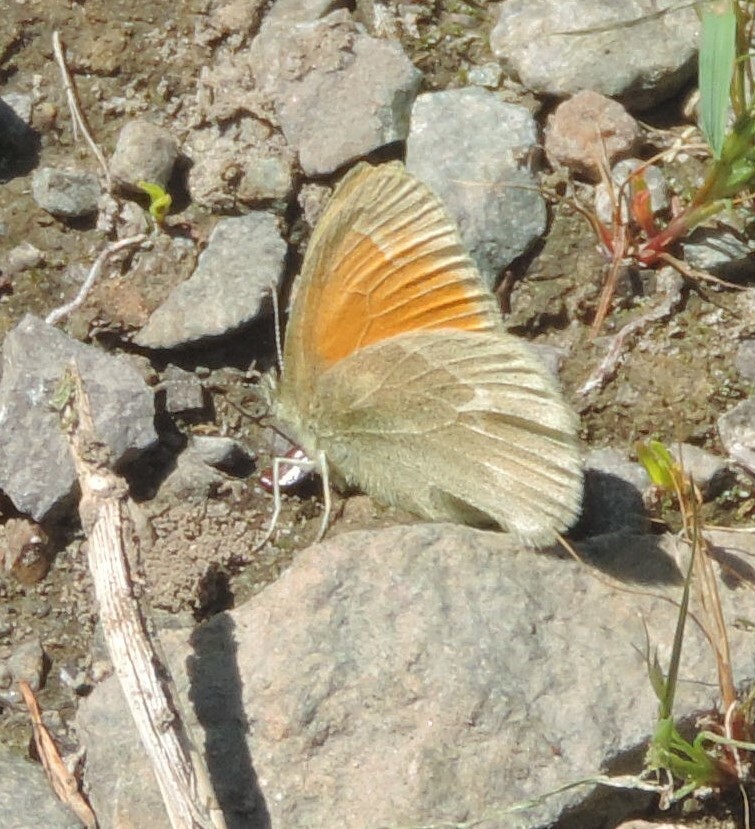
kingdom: Animalia
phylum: Arthropoda
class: Insecta
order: Lepidoptera
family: Nymphalidae
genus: Coenonympha
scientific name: Coenonympha california
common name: Common ringlet
